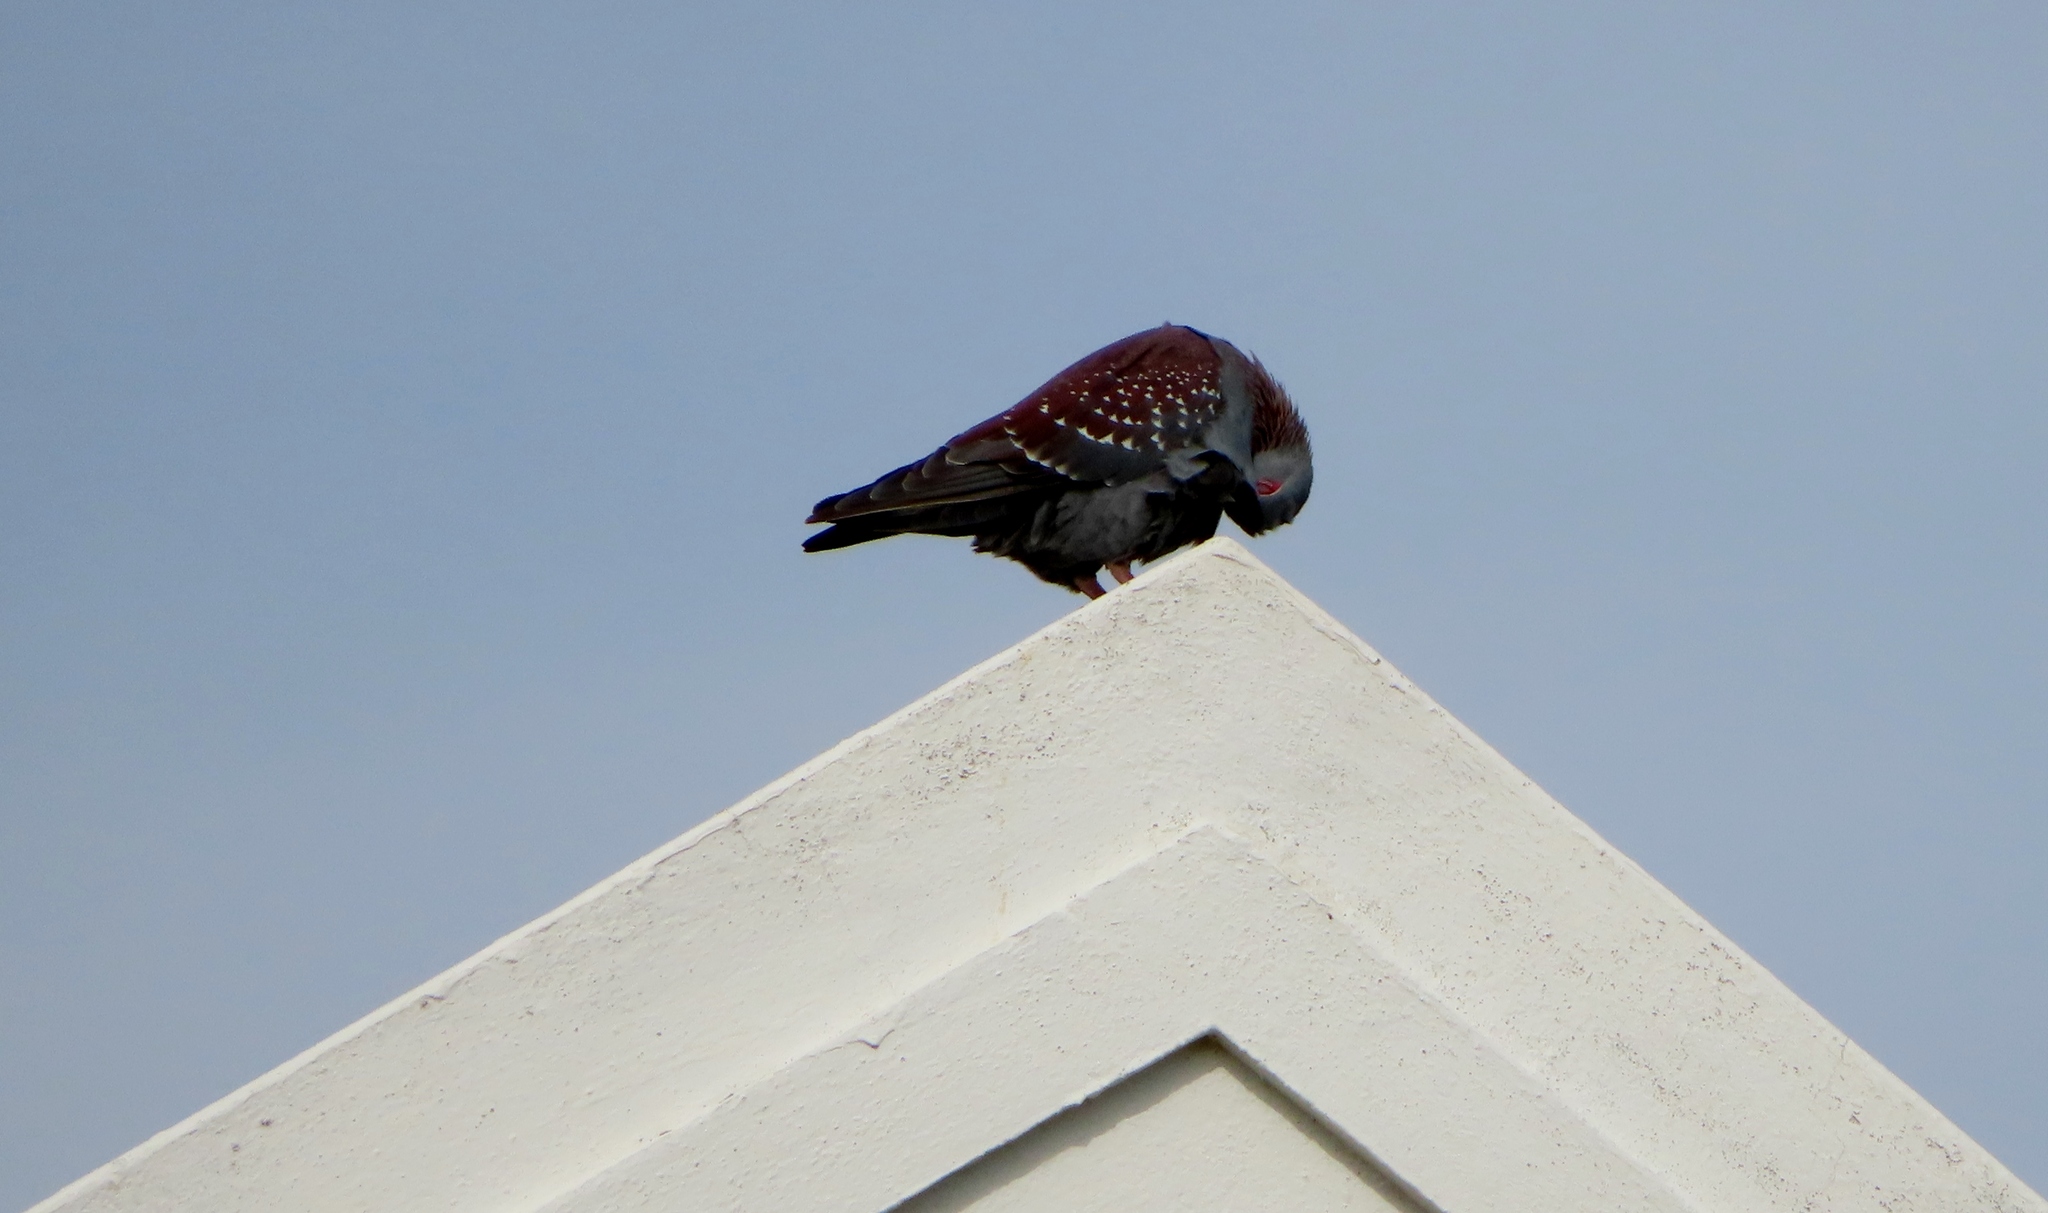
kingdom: Animalia
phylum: Chordata
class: Aves
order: Columbiformes
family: Columbidae
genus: Columba
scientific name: Columba guinea
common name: Speckled pigeon
